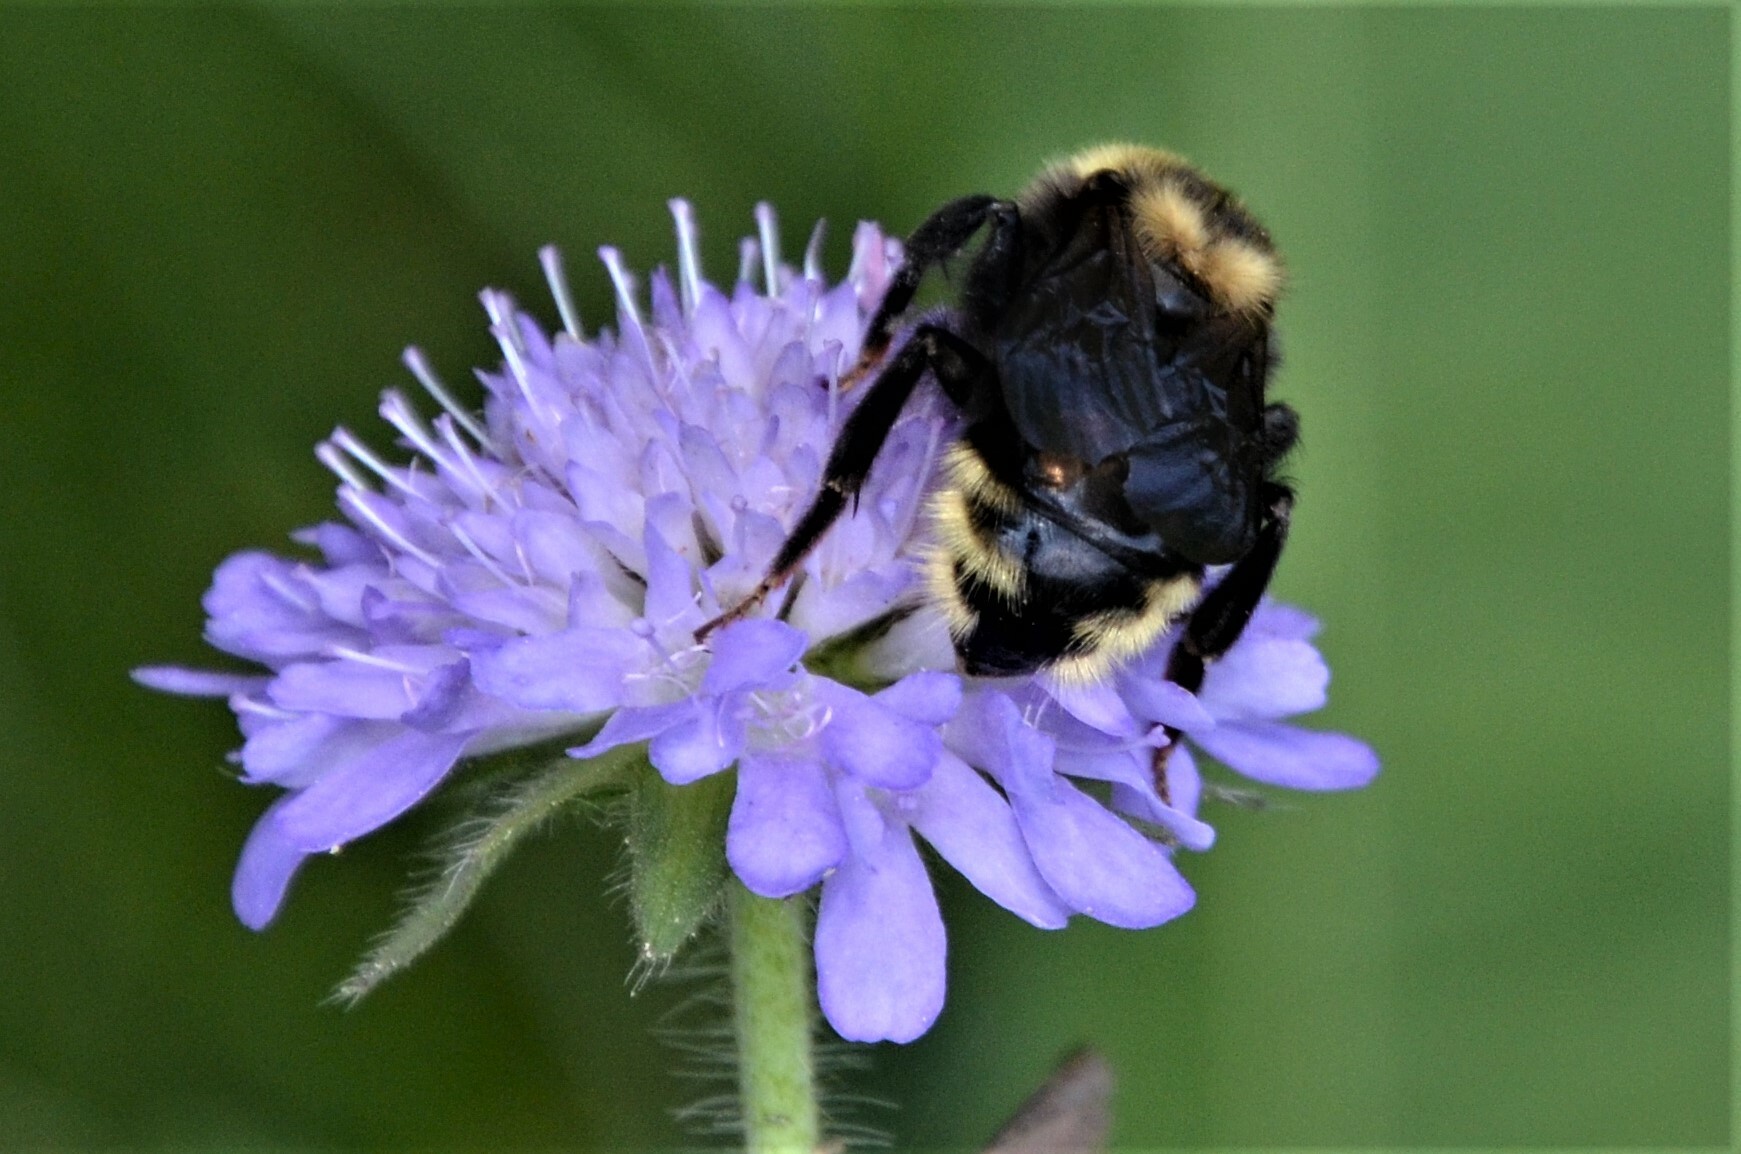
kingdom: Animalia
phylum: Arthropoda
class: Insecta
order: Hymenoptera
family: Apidae
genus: Bombus
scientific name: Bombus campestris
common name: Field cuckoo-bee
